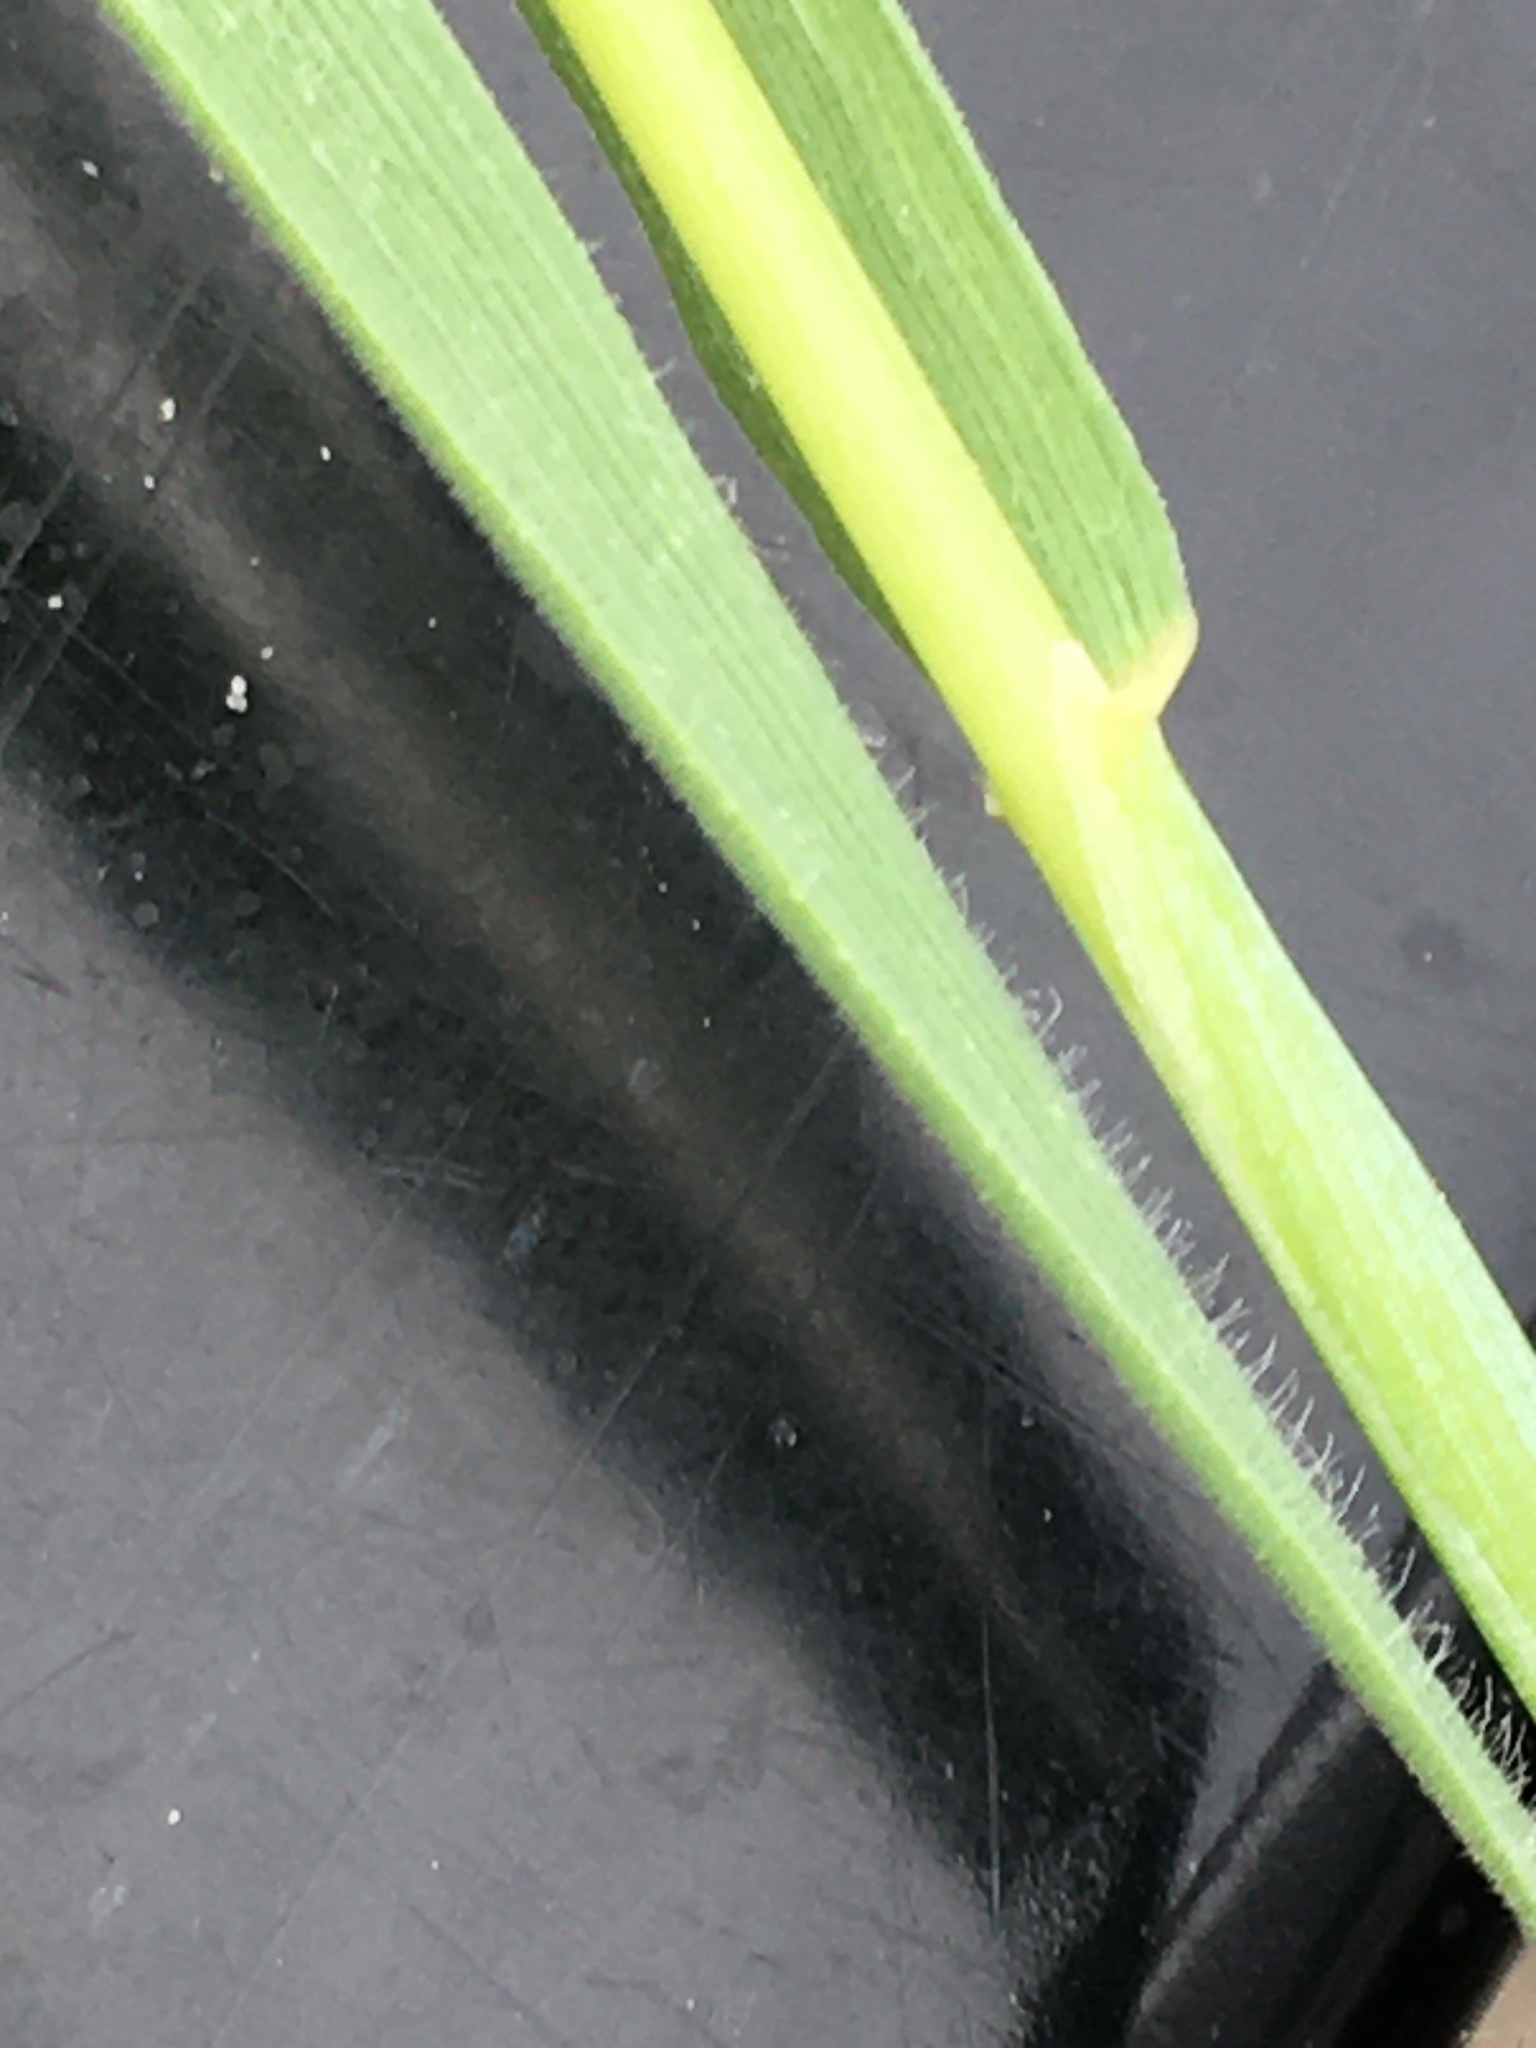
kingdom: Plantae
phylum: Tracheophyta
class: Liliopsida
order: Poales
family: Poaceae
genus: Hordeum
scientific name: Hordeum jubatum
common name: Foxtail barley
